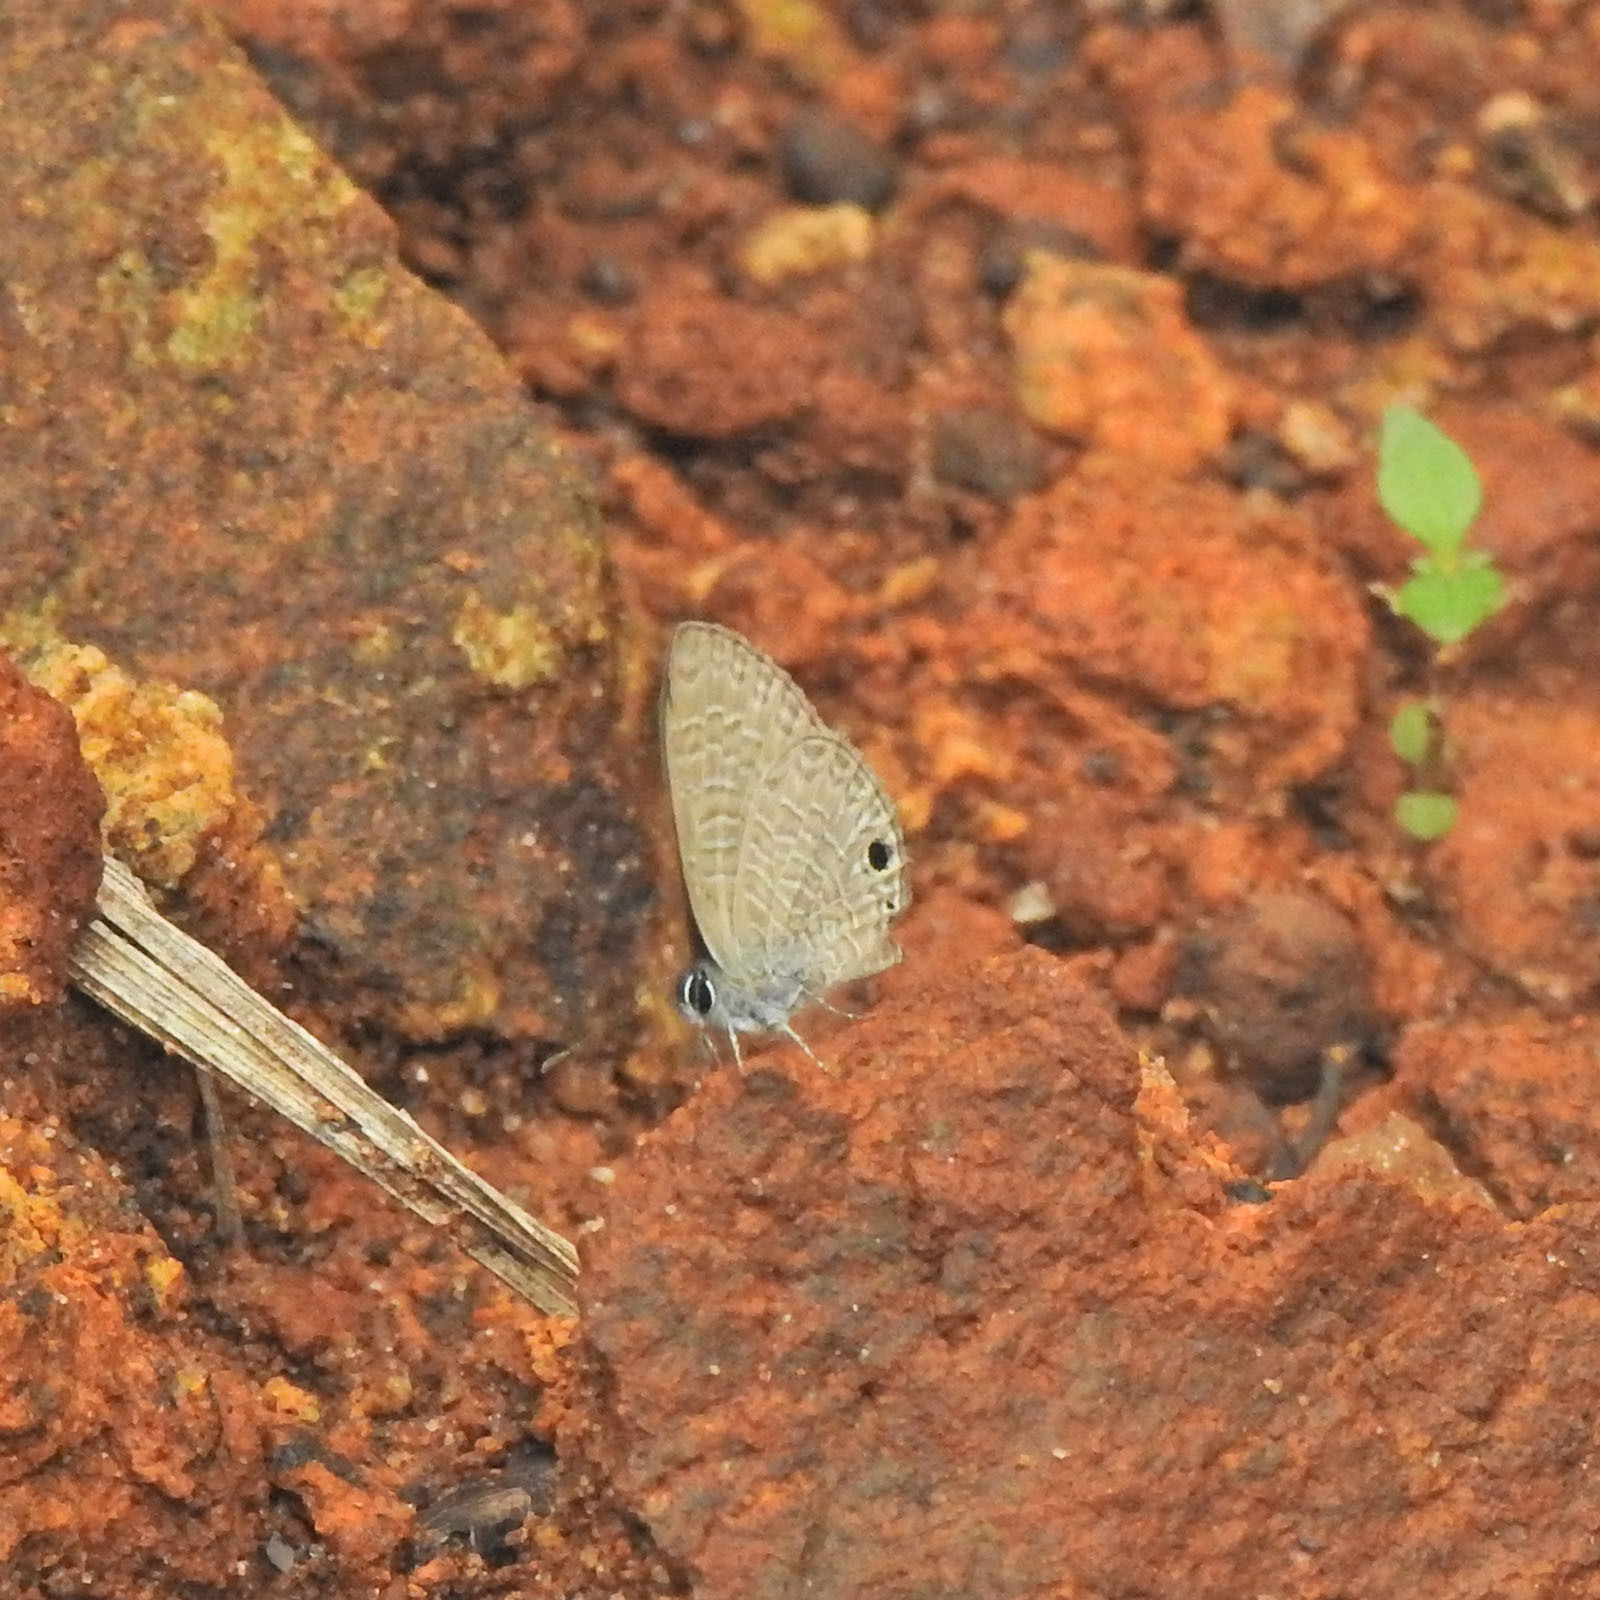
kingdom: Animalia
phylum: Arthropoda
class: Insecta
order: Lepidoptera
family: Lycaenidae
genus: Prosotas
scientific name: Prosotas dubiosa
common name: Tailless lineblue
